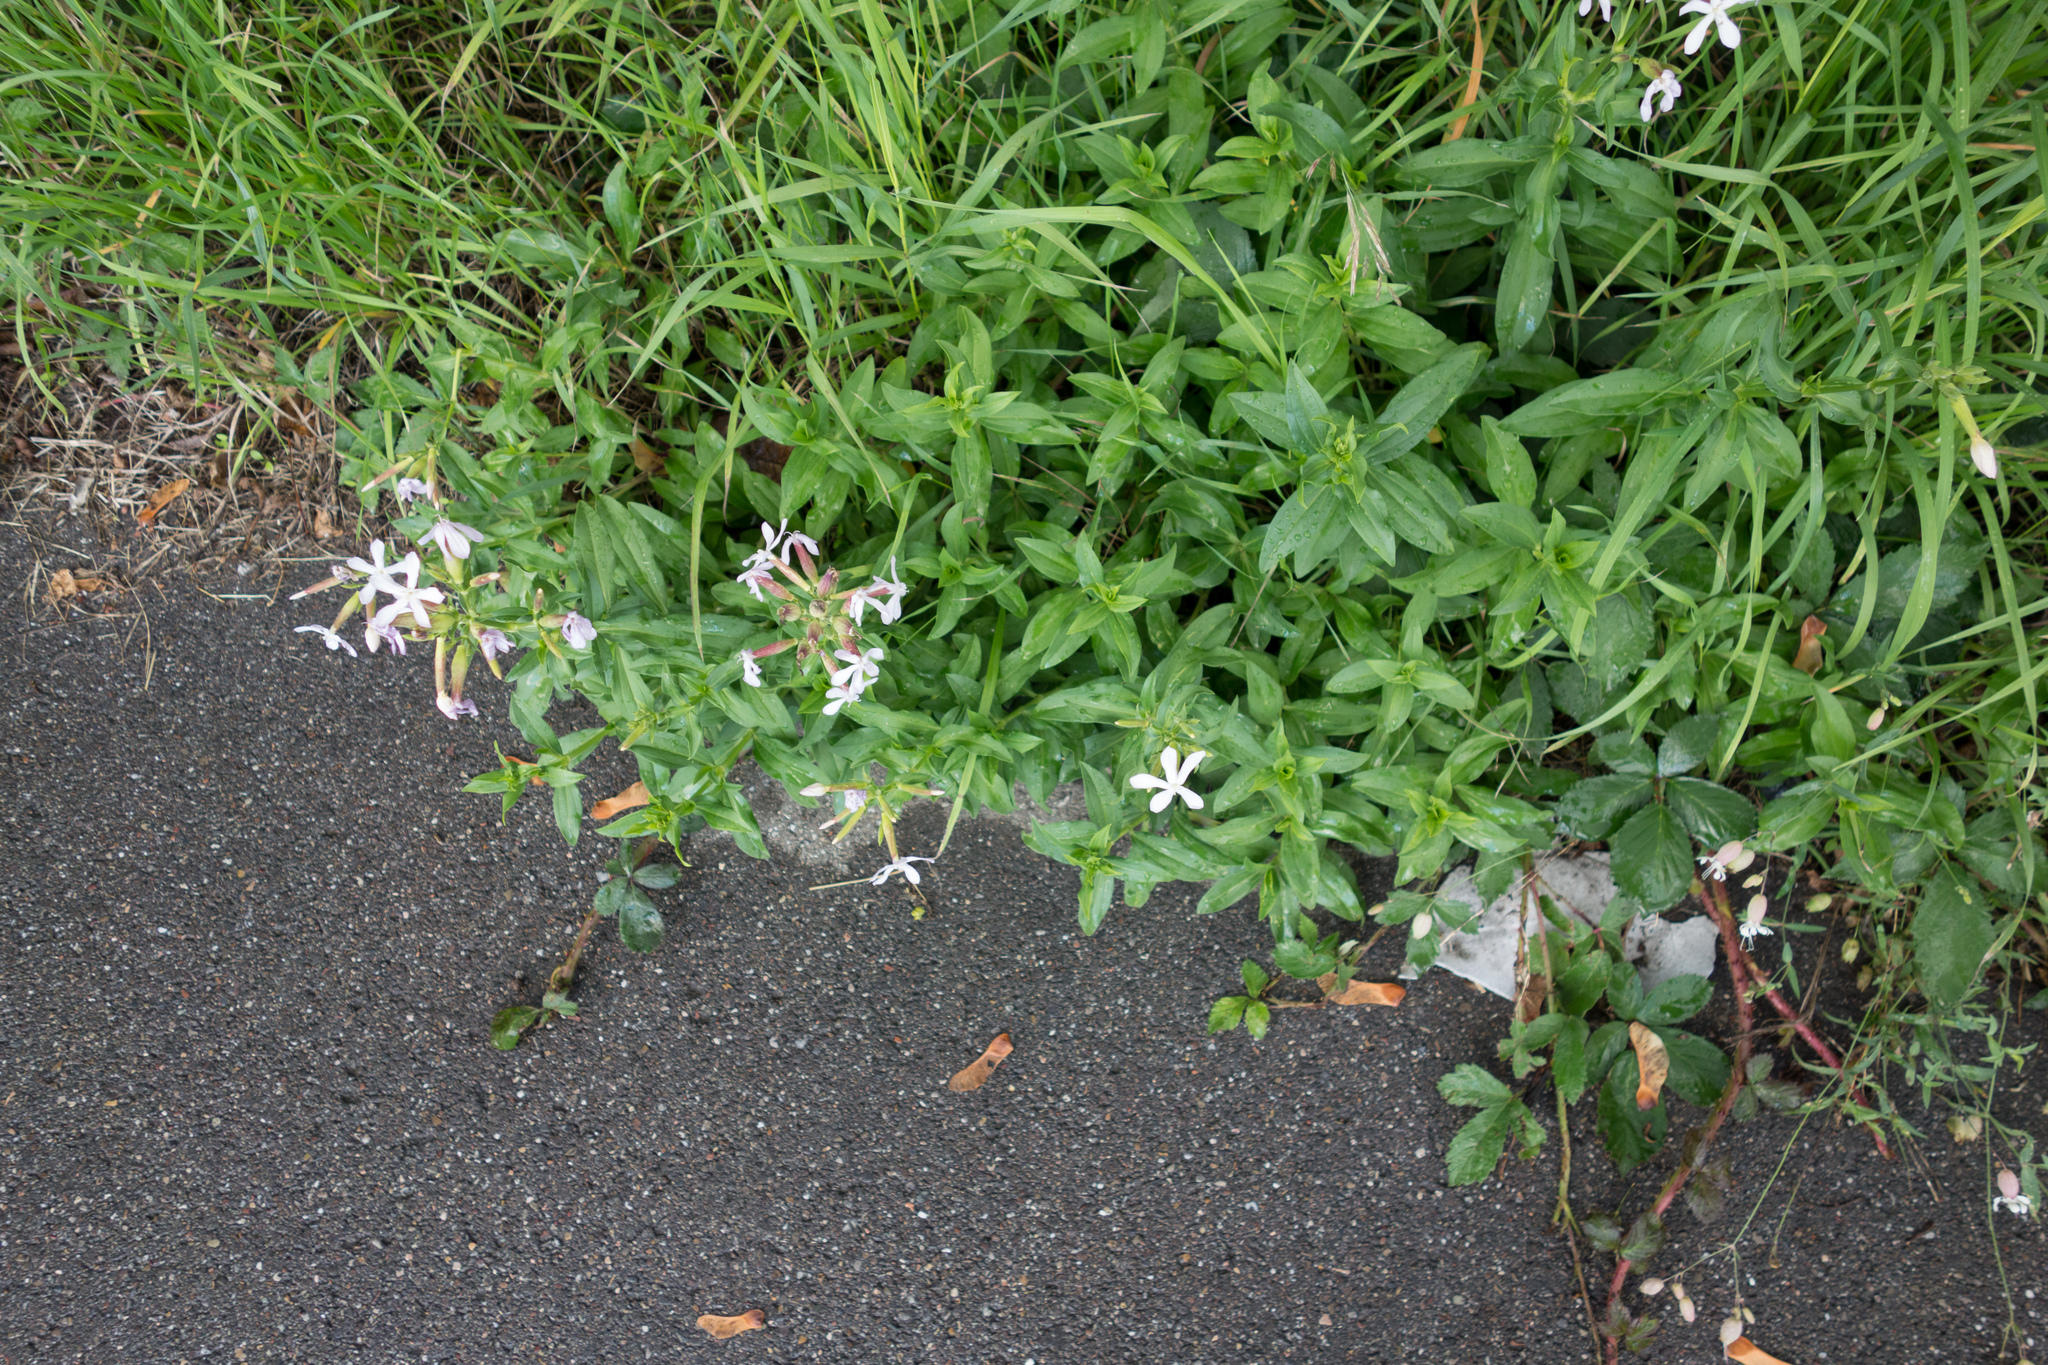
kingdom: Plantae
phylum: Tracheophyta
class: Magnoliopsida
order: Caryophyllales
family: Caryophyllaceae
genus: Saponaria
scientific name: Saponaria officinalis
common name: Soapwort
